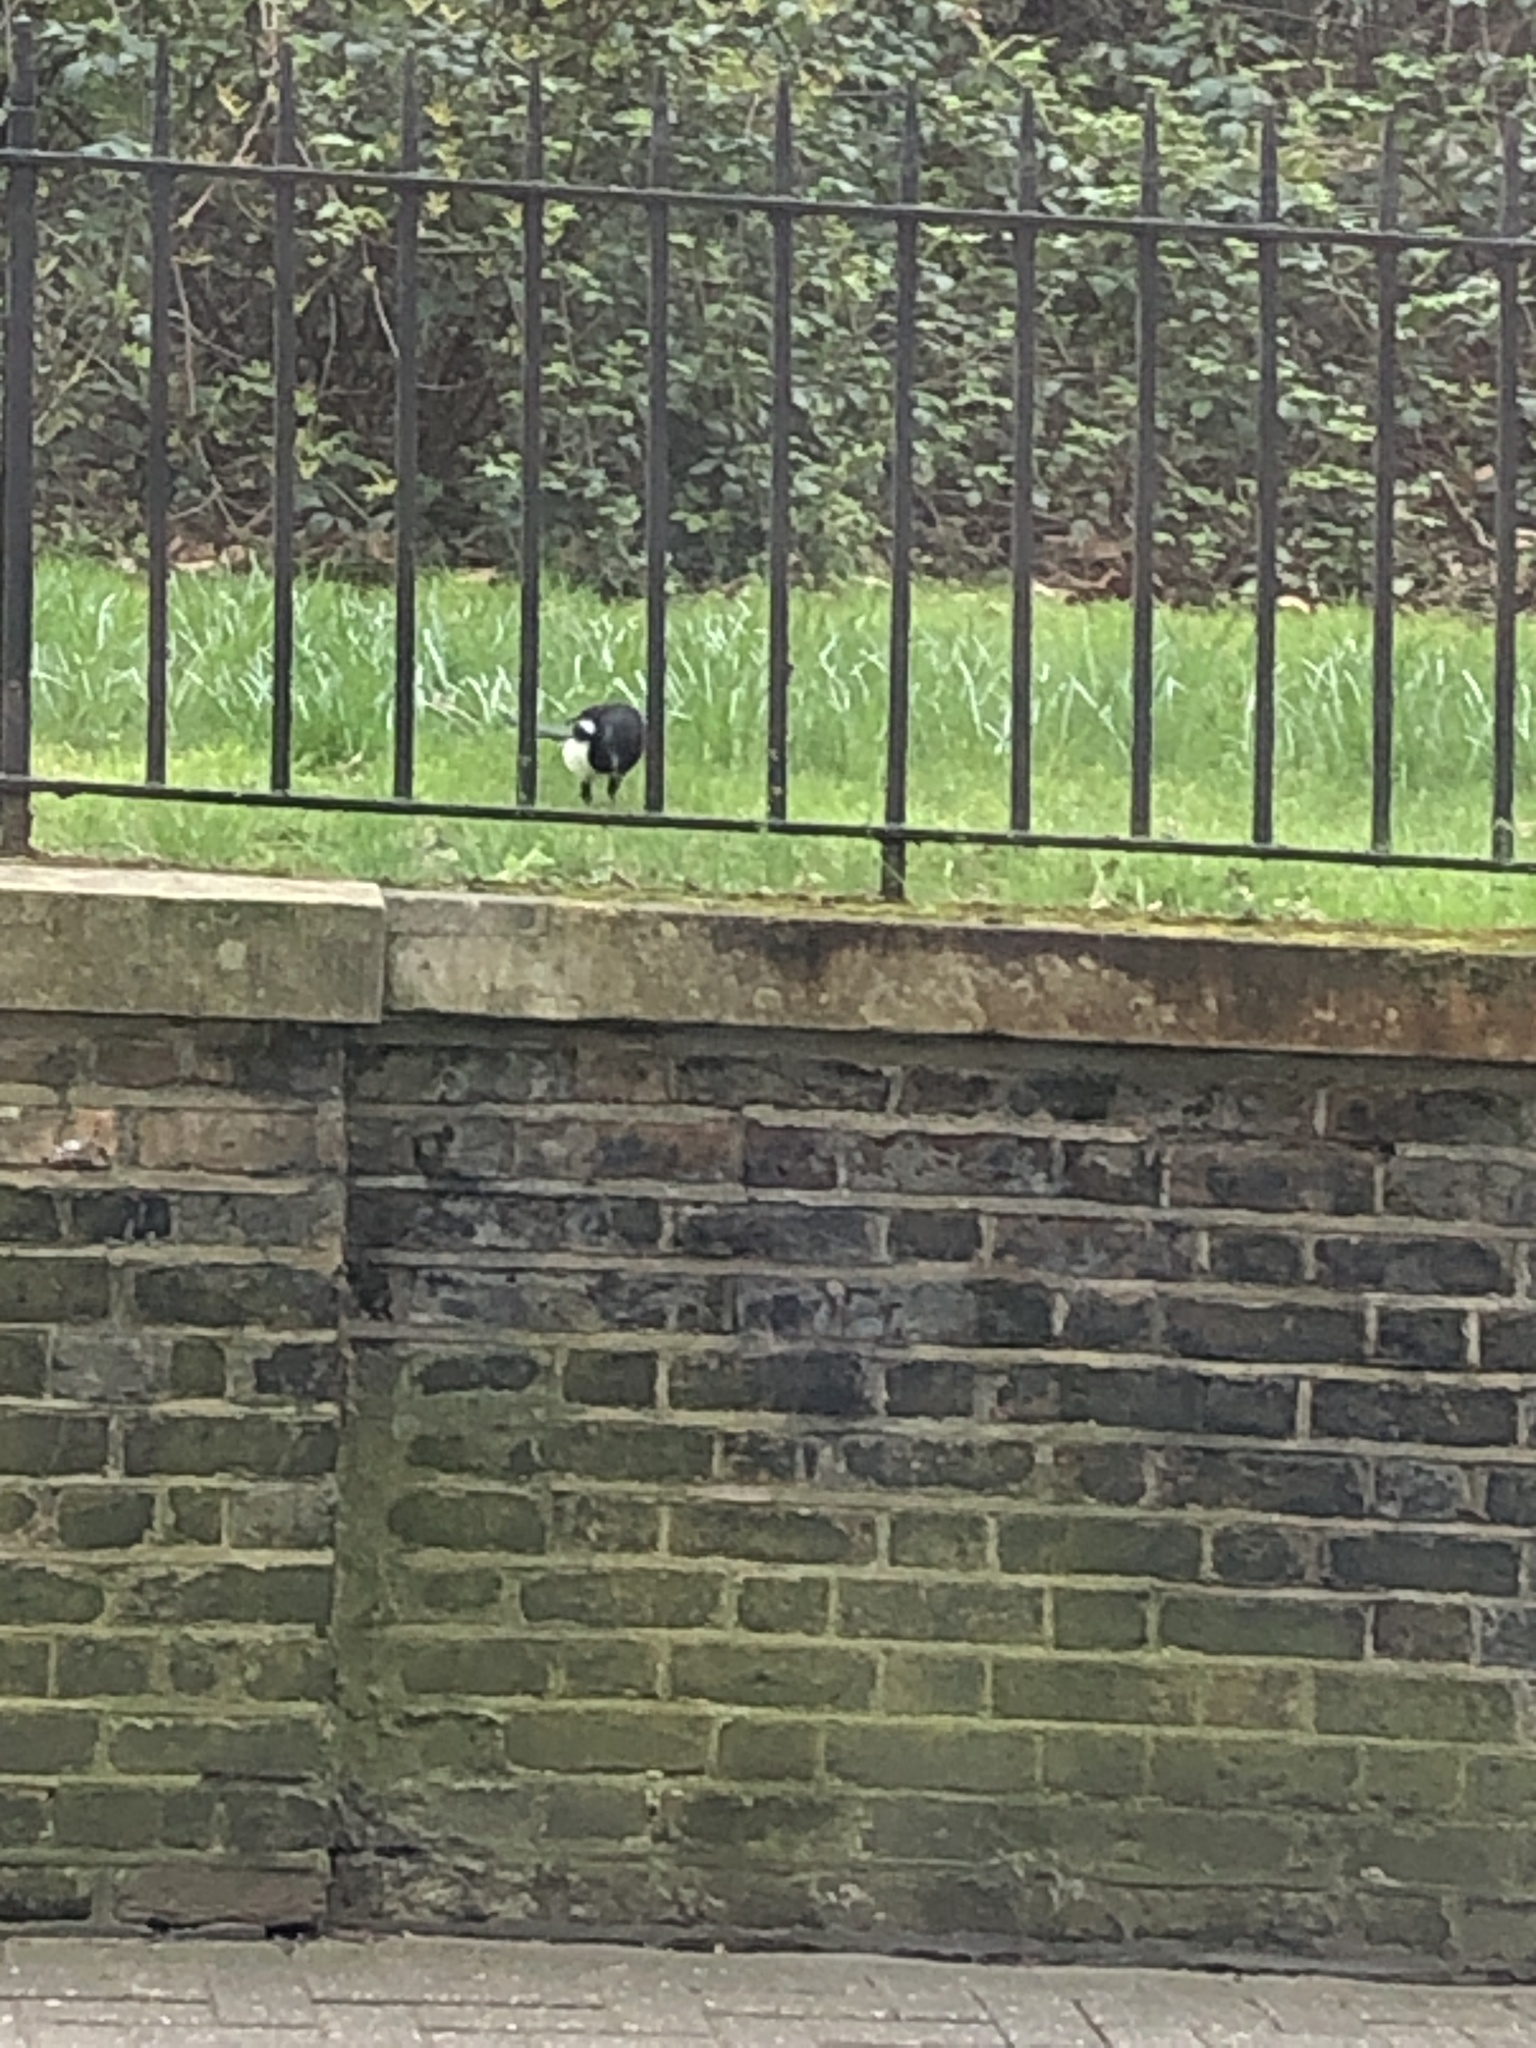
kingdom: Animalia
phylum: Chordata
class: Aves
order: Passeriformes
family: Corvidae
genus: Pica
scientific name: Pica pica
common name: Eurasian magpie
